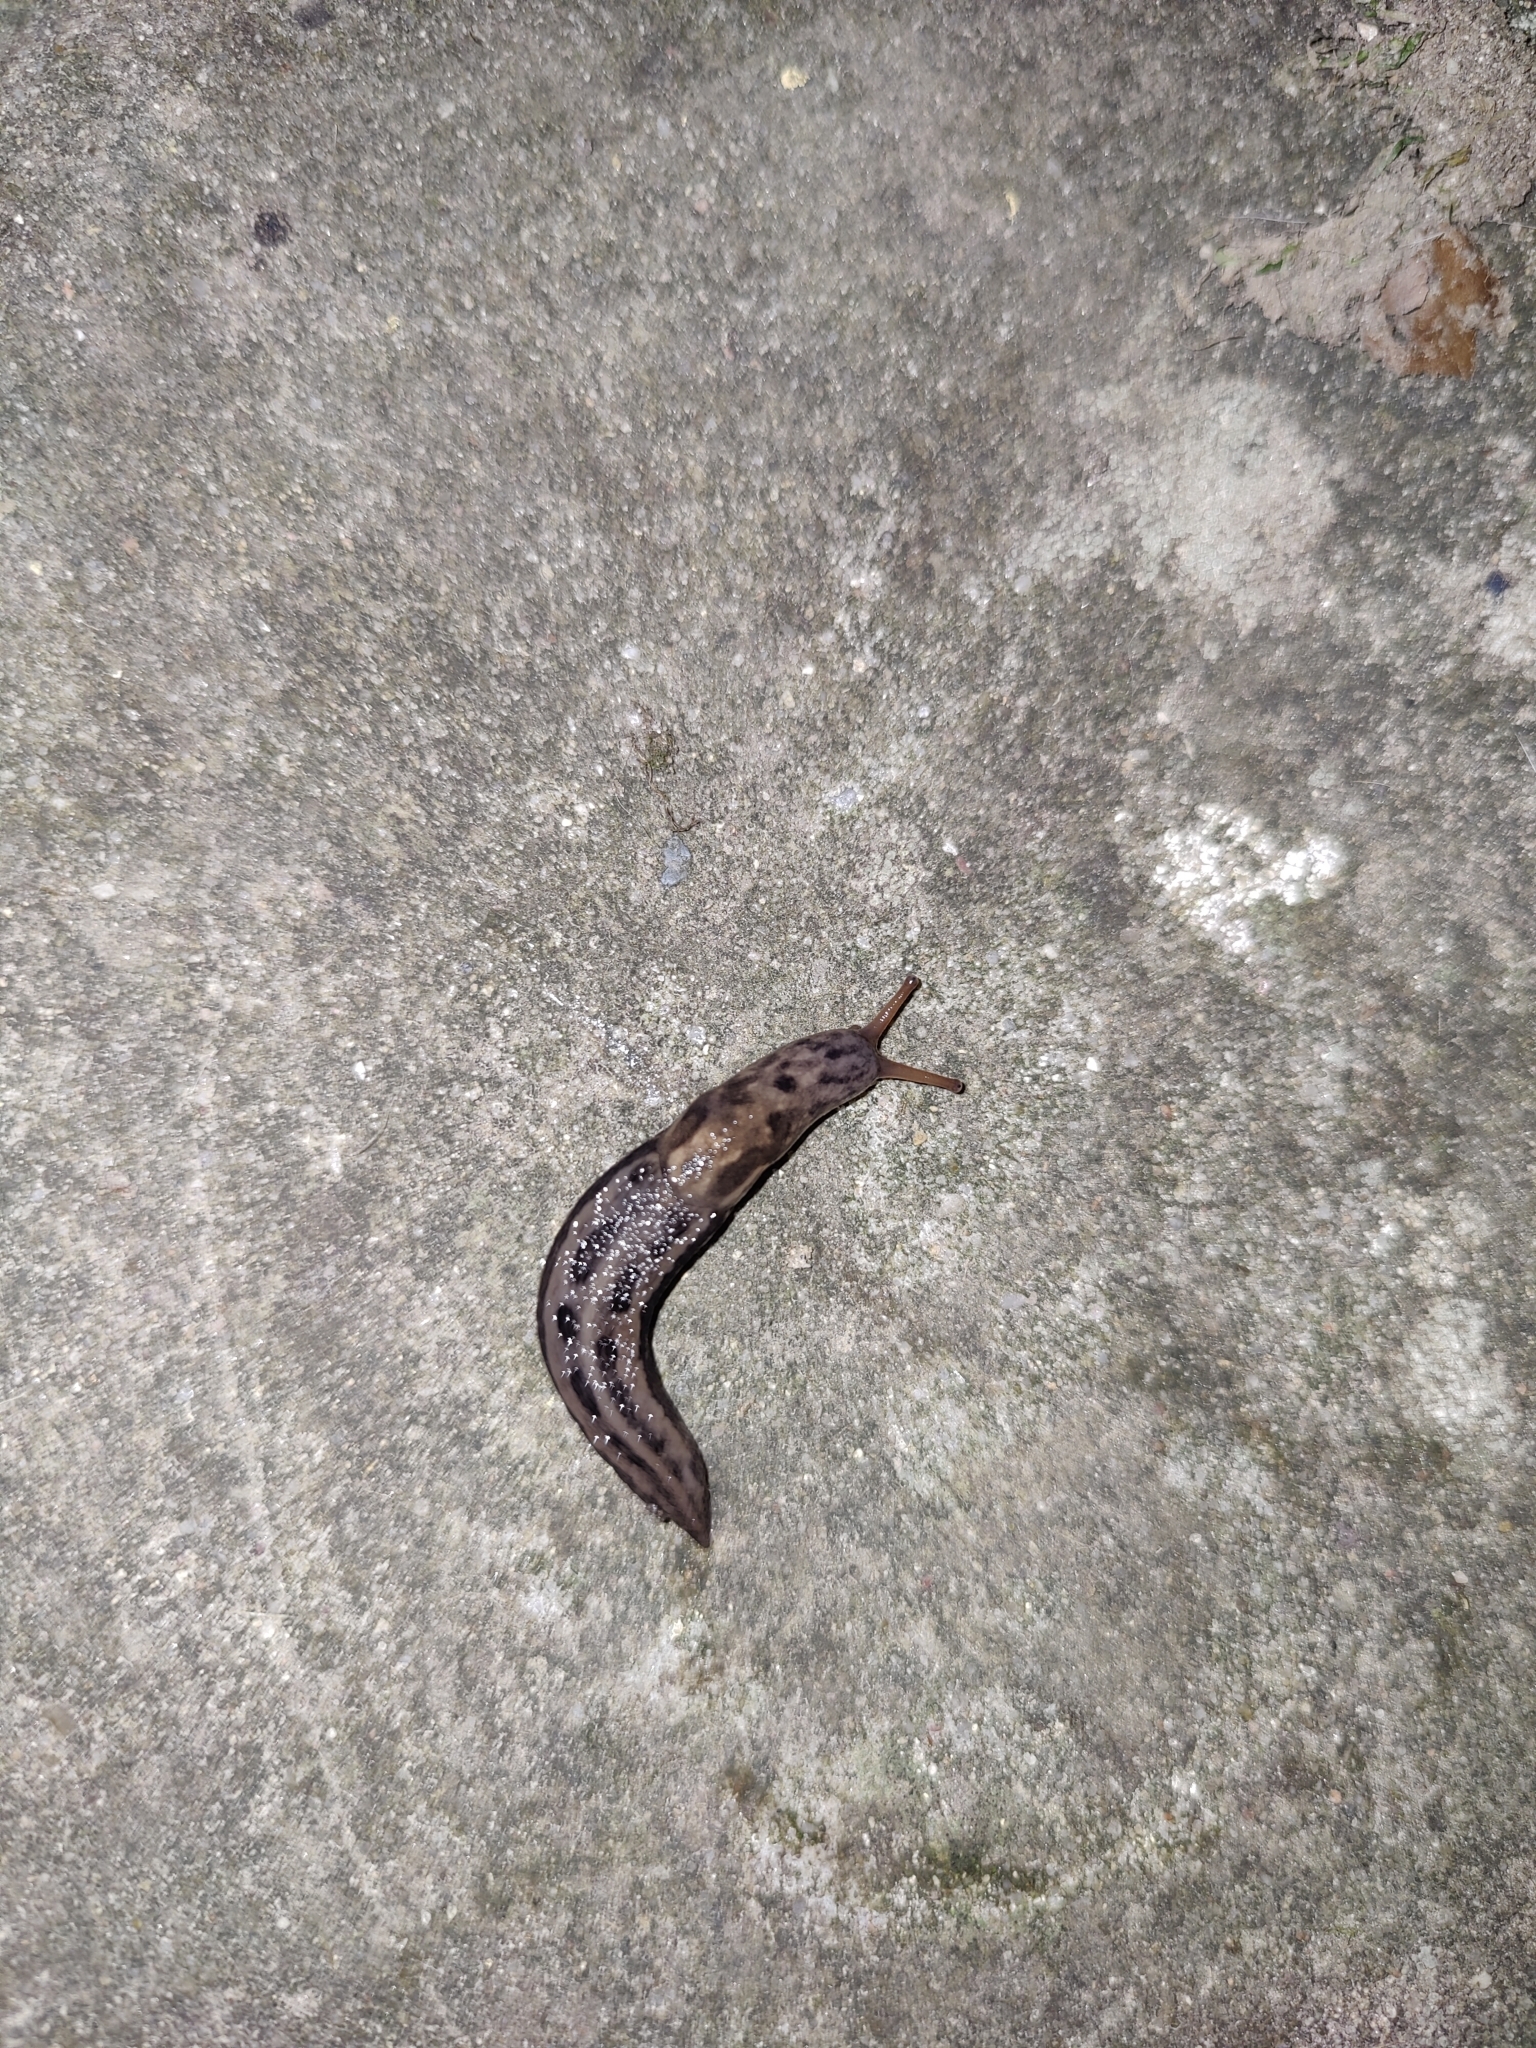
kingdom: Animalia
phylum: Mollusca
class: Gastropoda
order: Stylommatophora
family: Limacidae
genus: Limax
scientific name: Limax maximus
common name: Great grey slug
